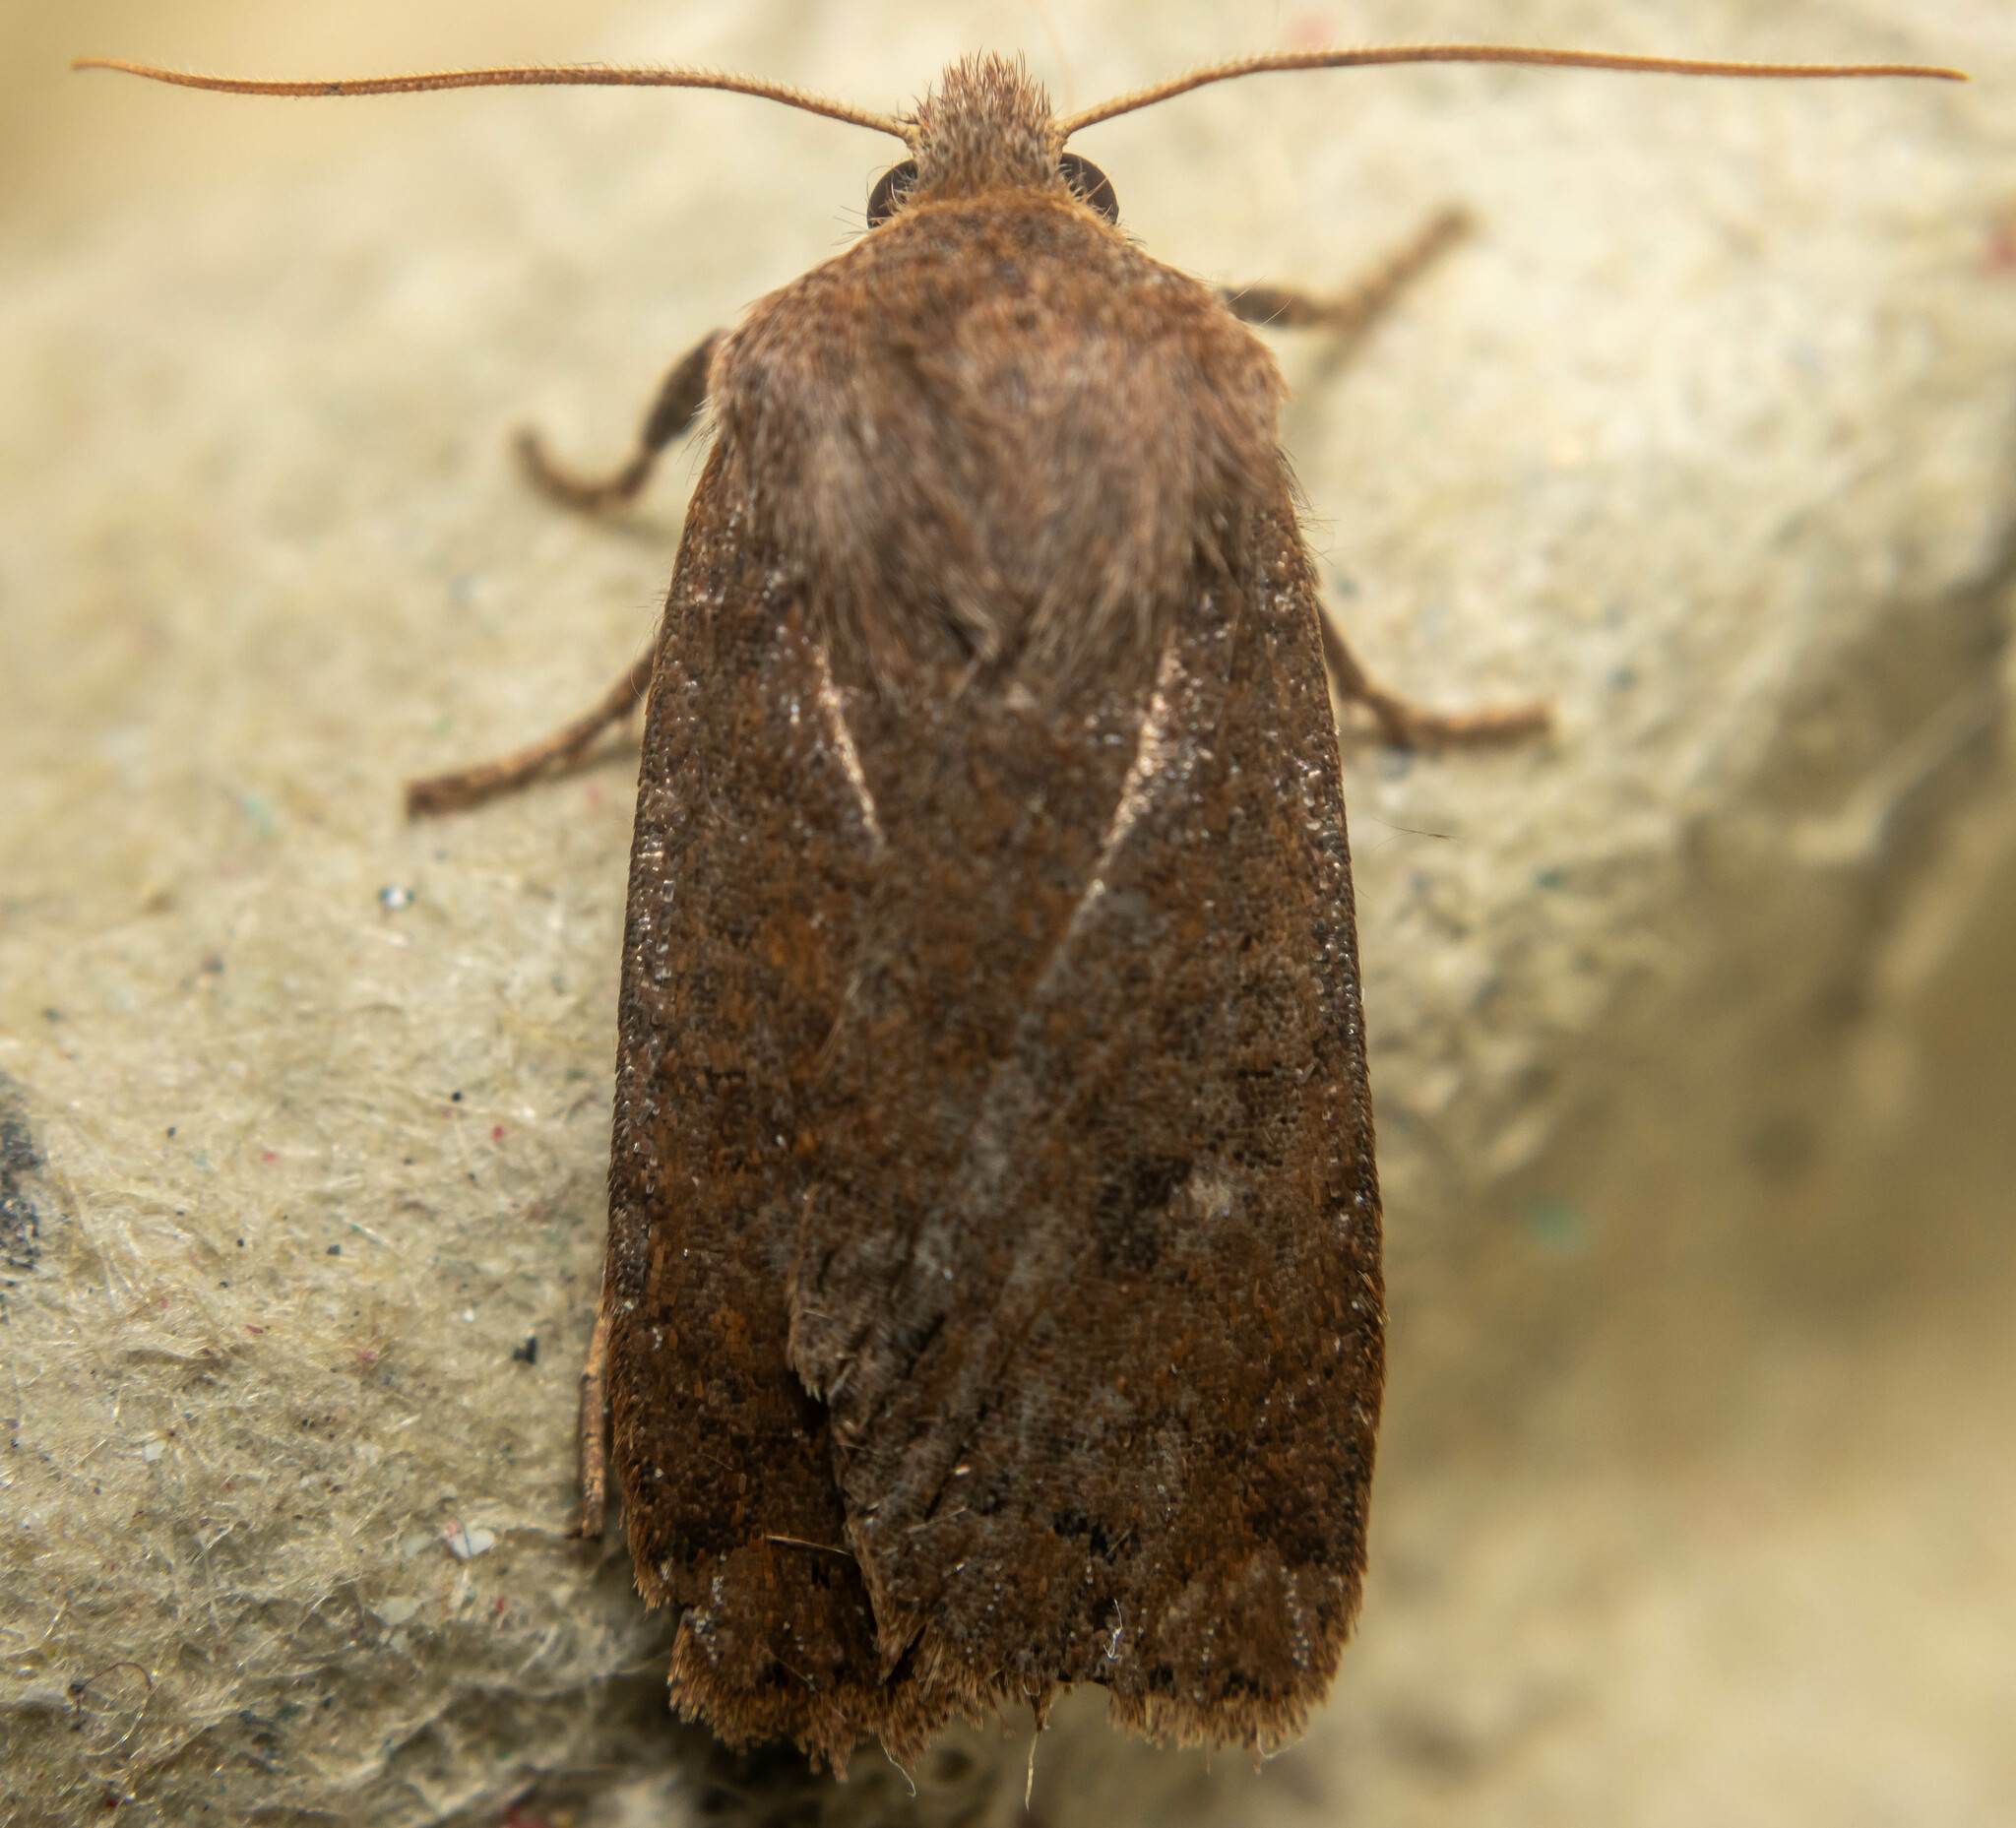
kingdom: Animalia
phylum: Arthropoda
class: Insecta
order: Lepidoptera
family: Noctuidae
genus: Conistra
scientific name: Conistra vaccinii
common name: Chestnut
